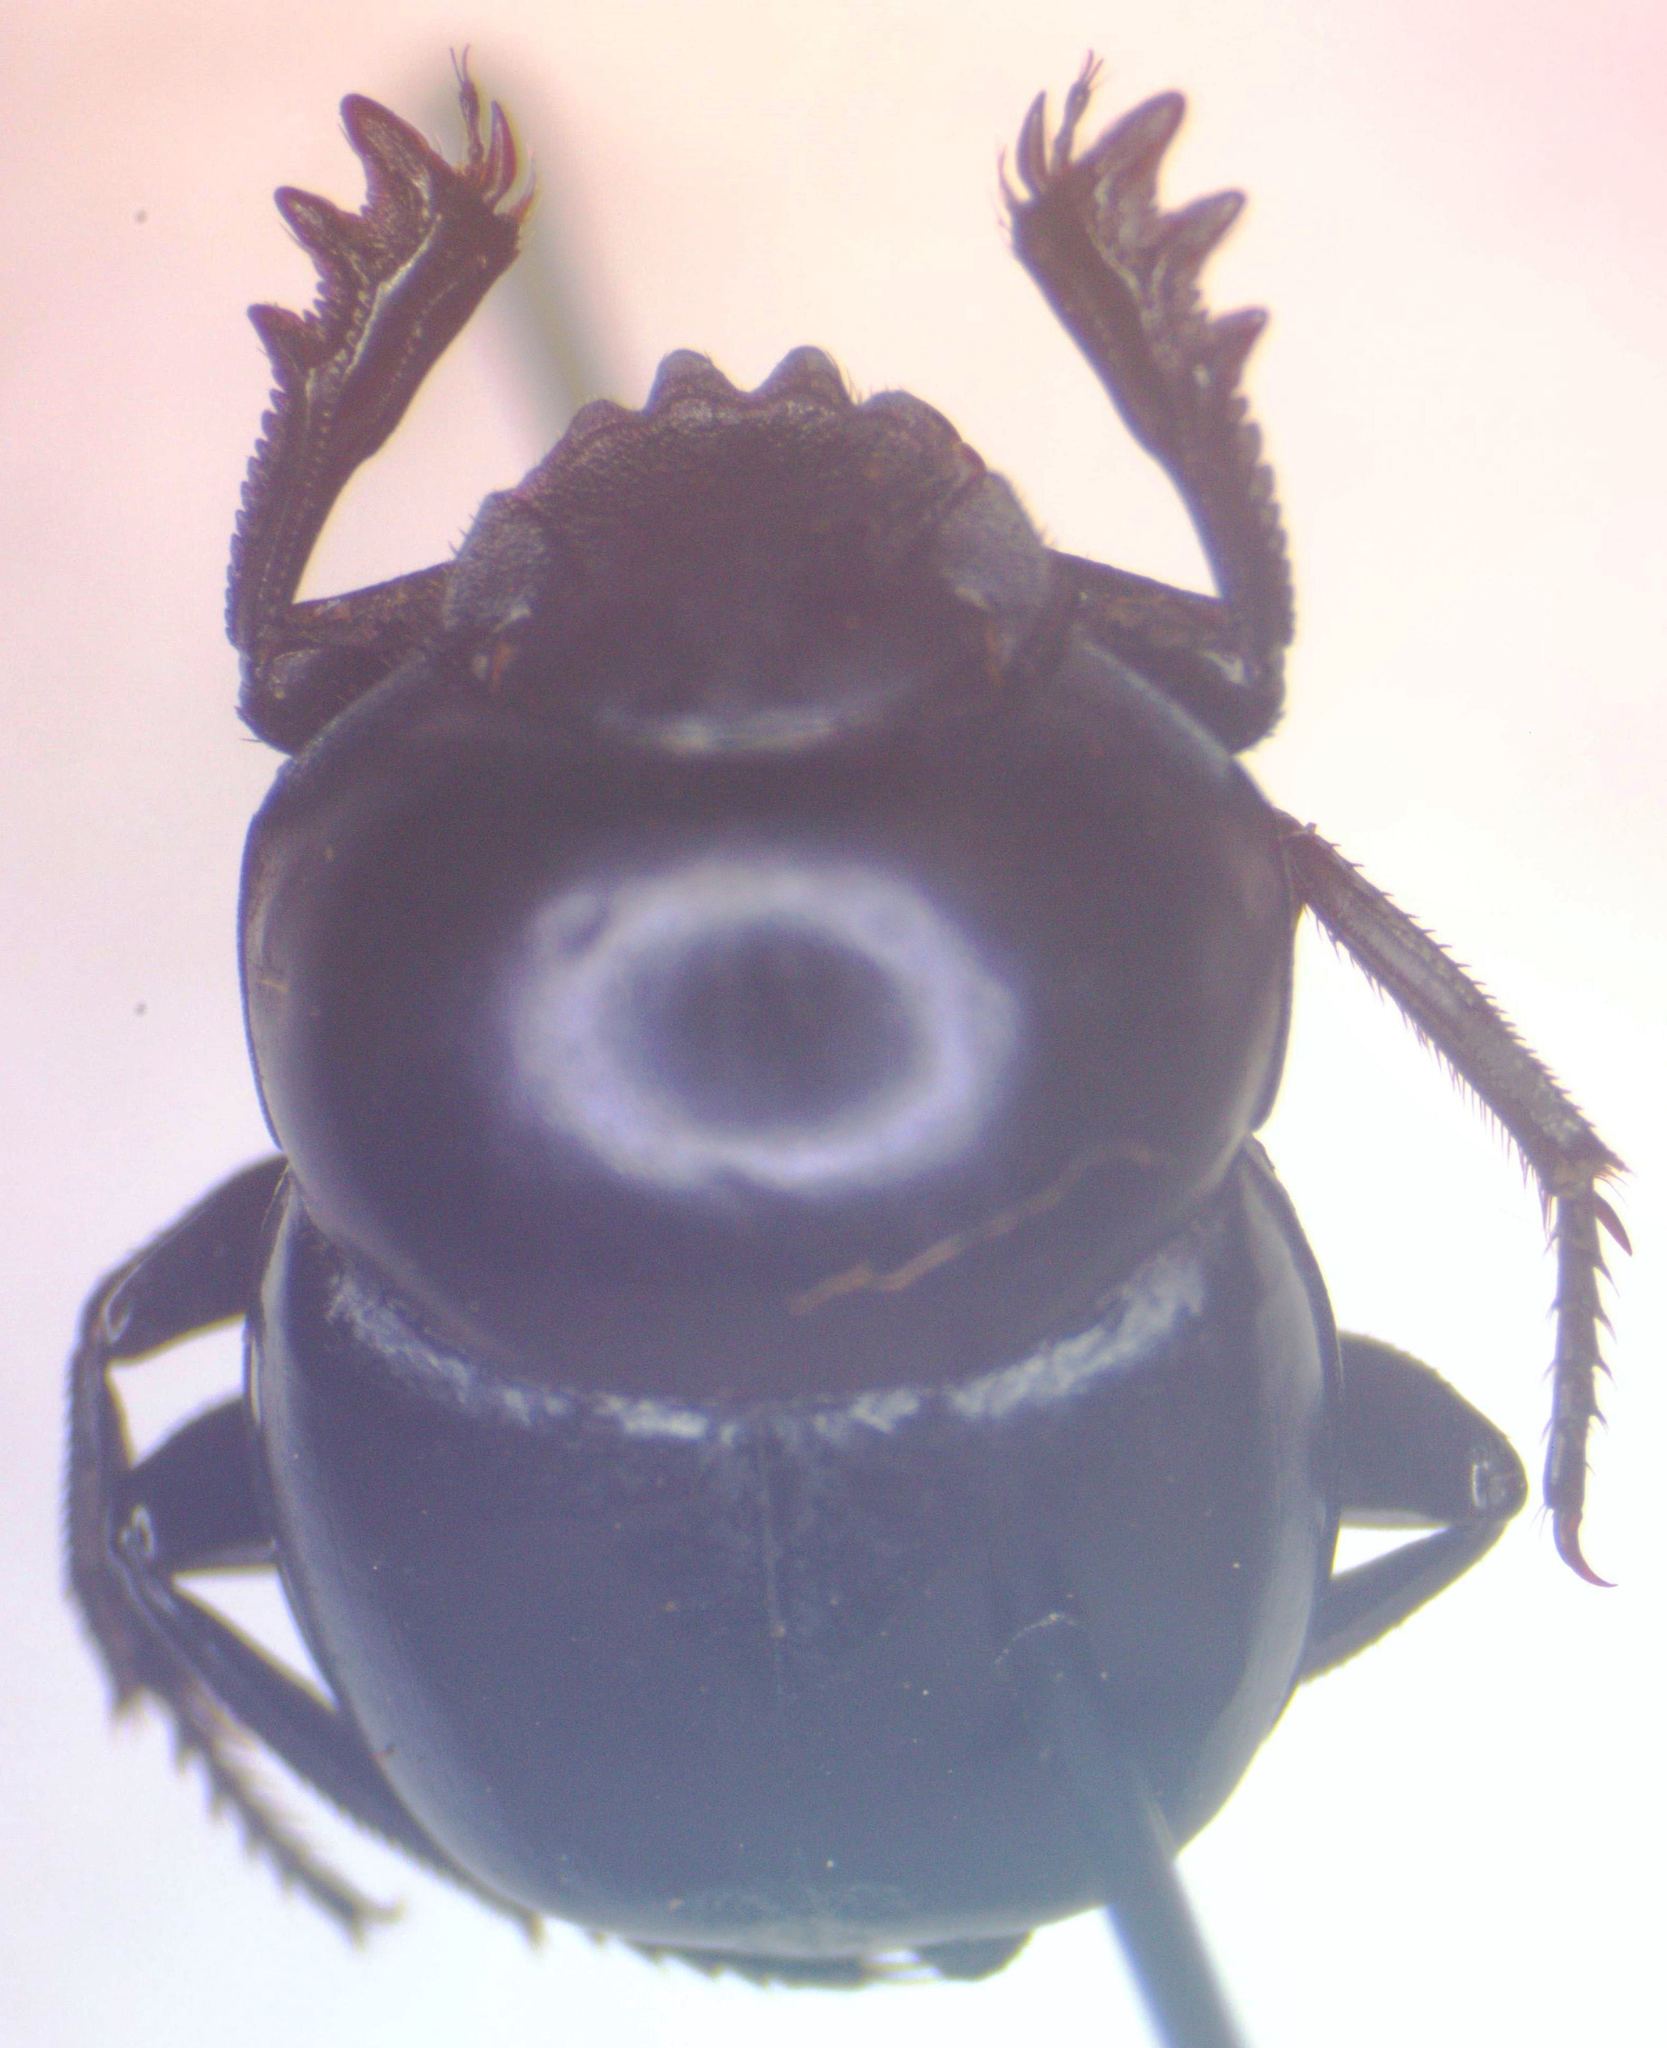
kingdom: Animalia
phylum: Arthropoda
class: Insecta
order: Coleoptera
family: Scarabaeidae
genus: Canthon
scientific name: Canthon deyrollei
